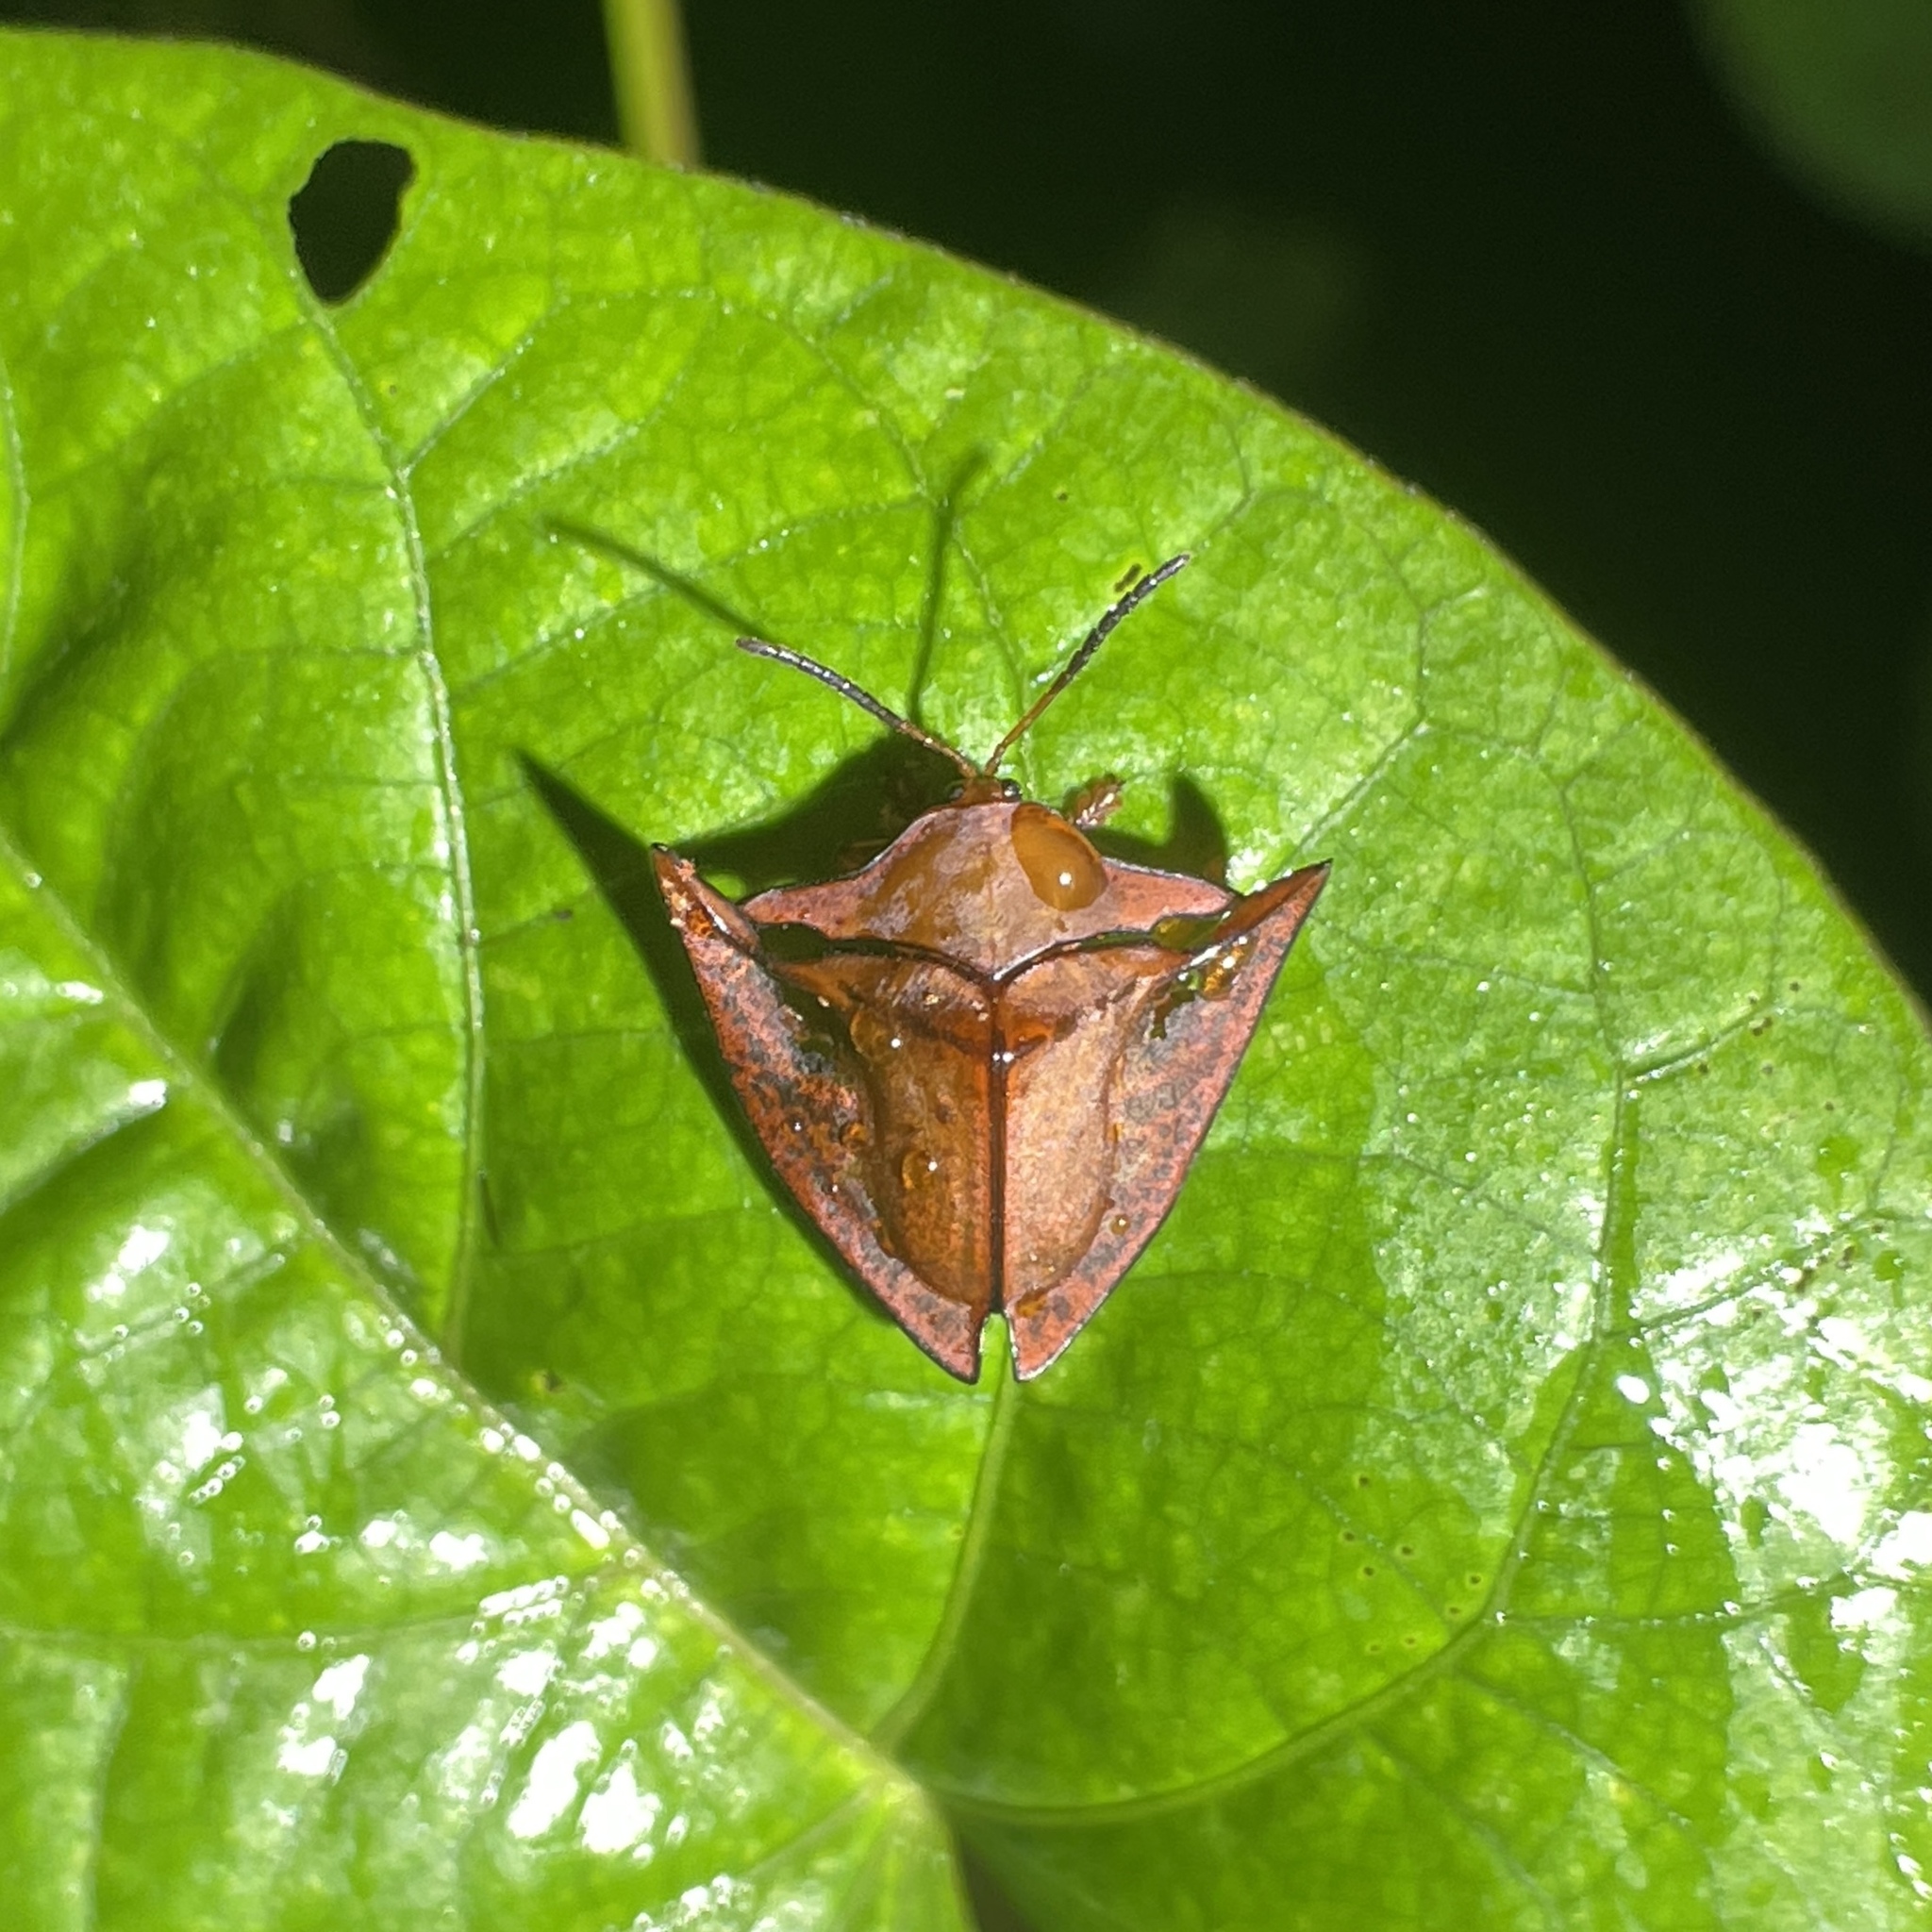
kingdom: Animalia
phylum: Arthropoda
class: Insecta
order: Coleoptera
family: Chrysomelidae
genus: Acromis
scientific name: Acromis spinifex
